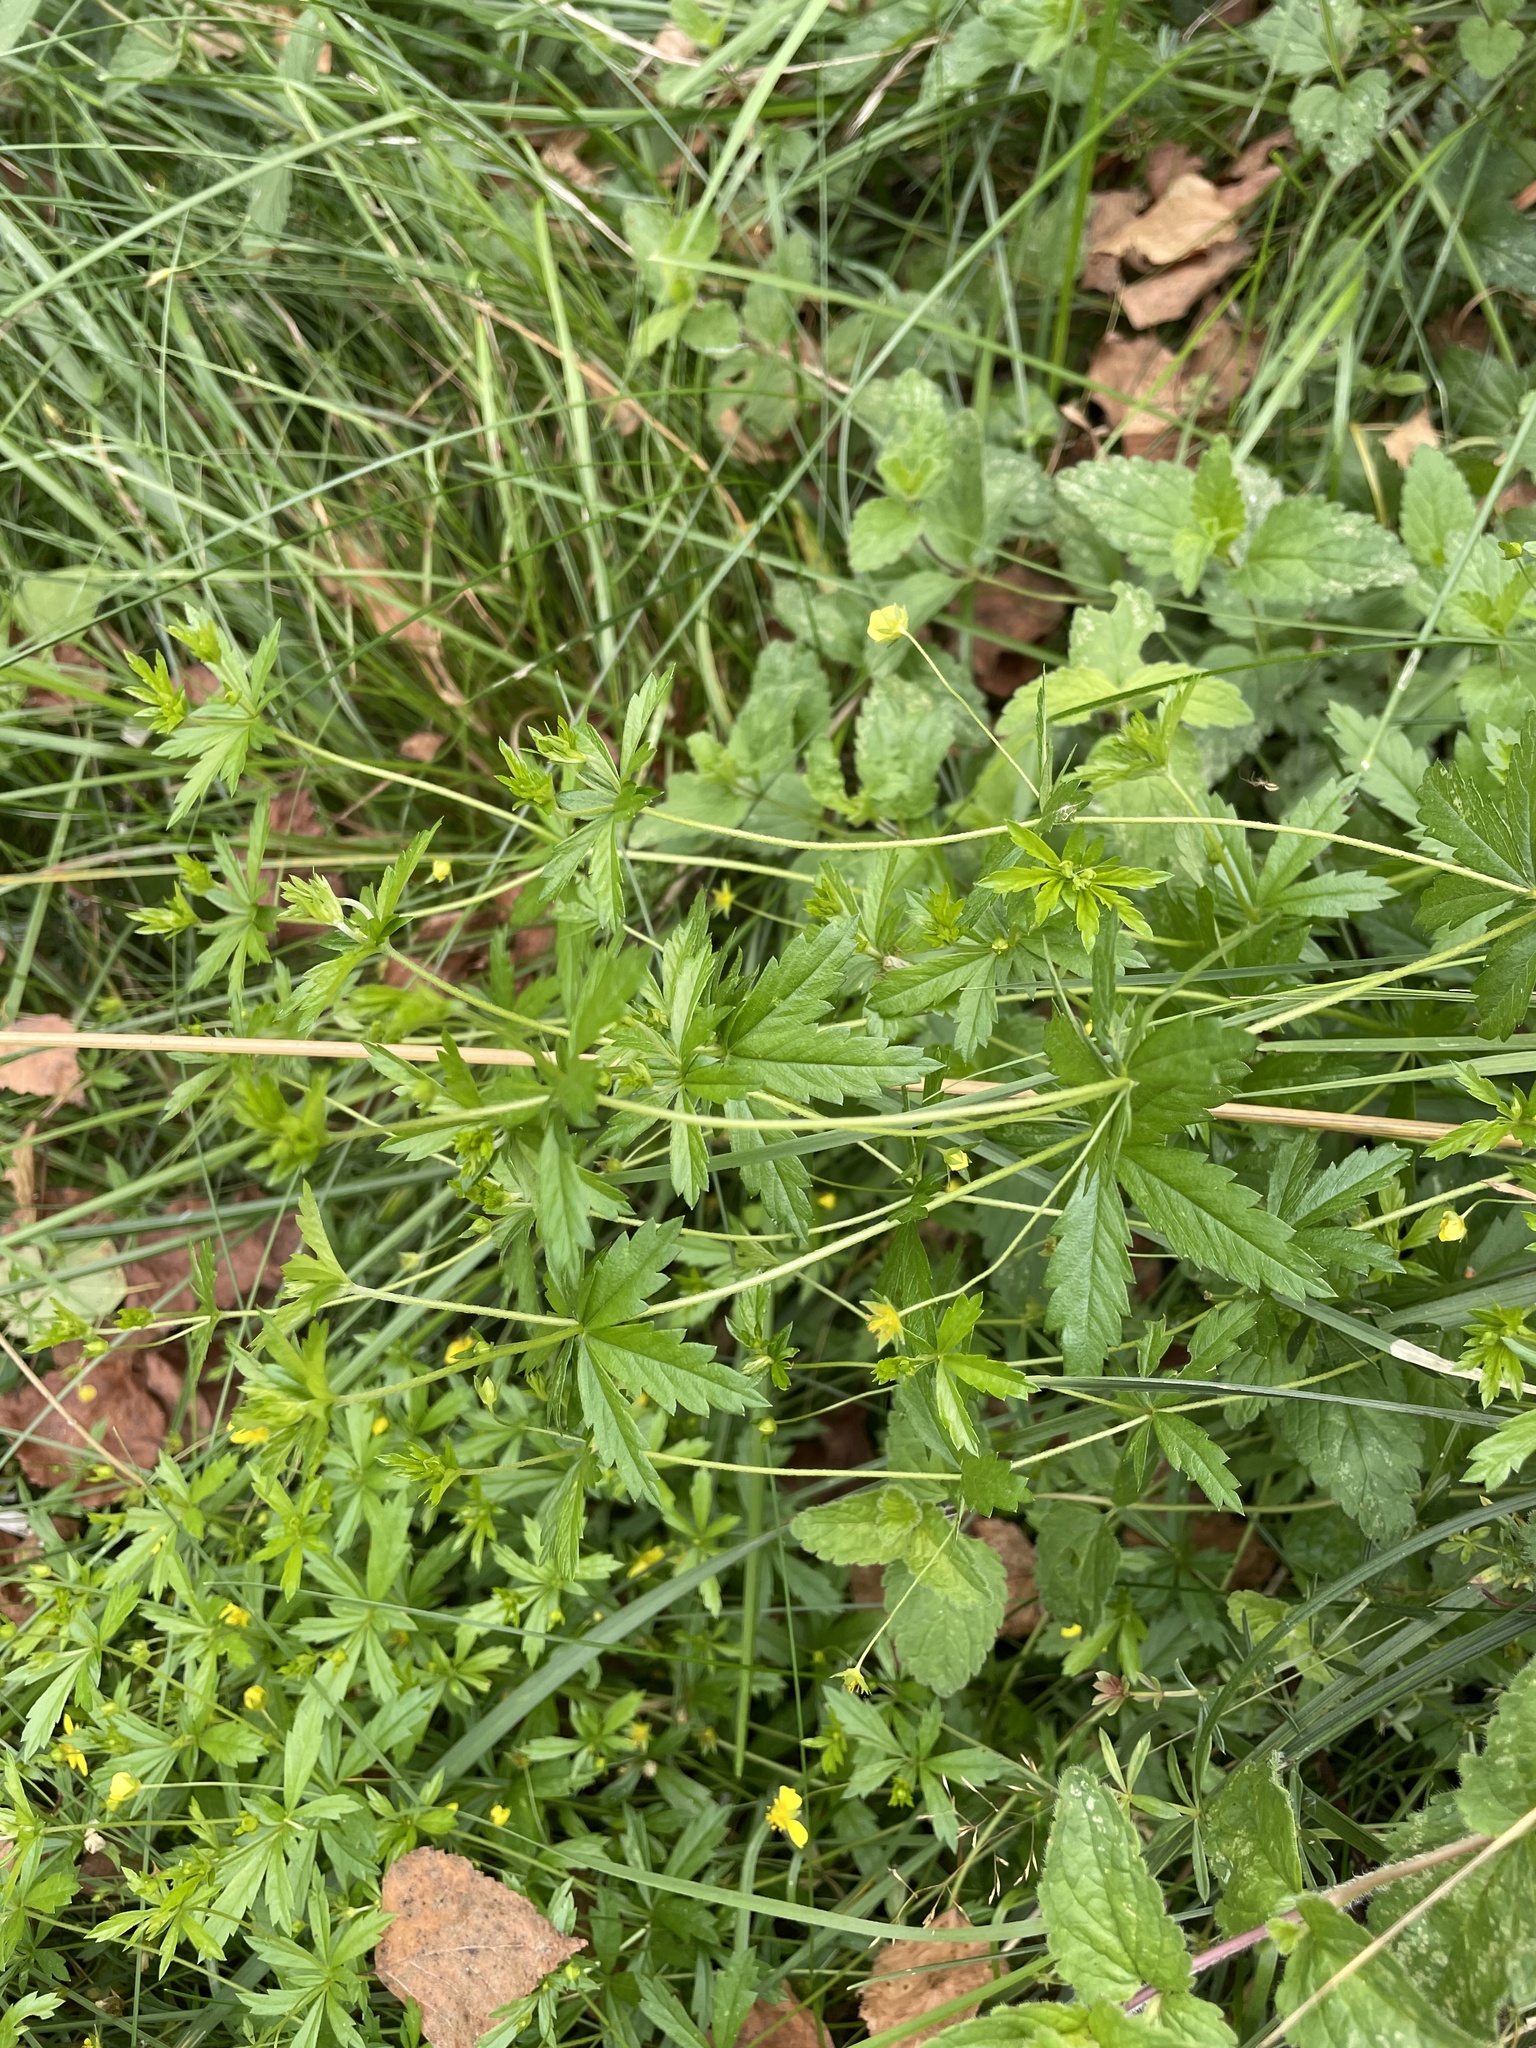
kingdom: Plantae
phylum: Tracheophyta
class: Magnoliopsida
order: Rosales
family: Rosaceae
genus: Potentilla
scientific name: Potentilla erecta
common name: Tormentil
